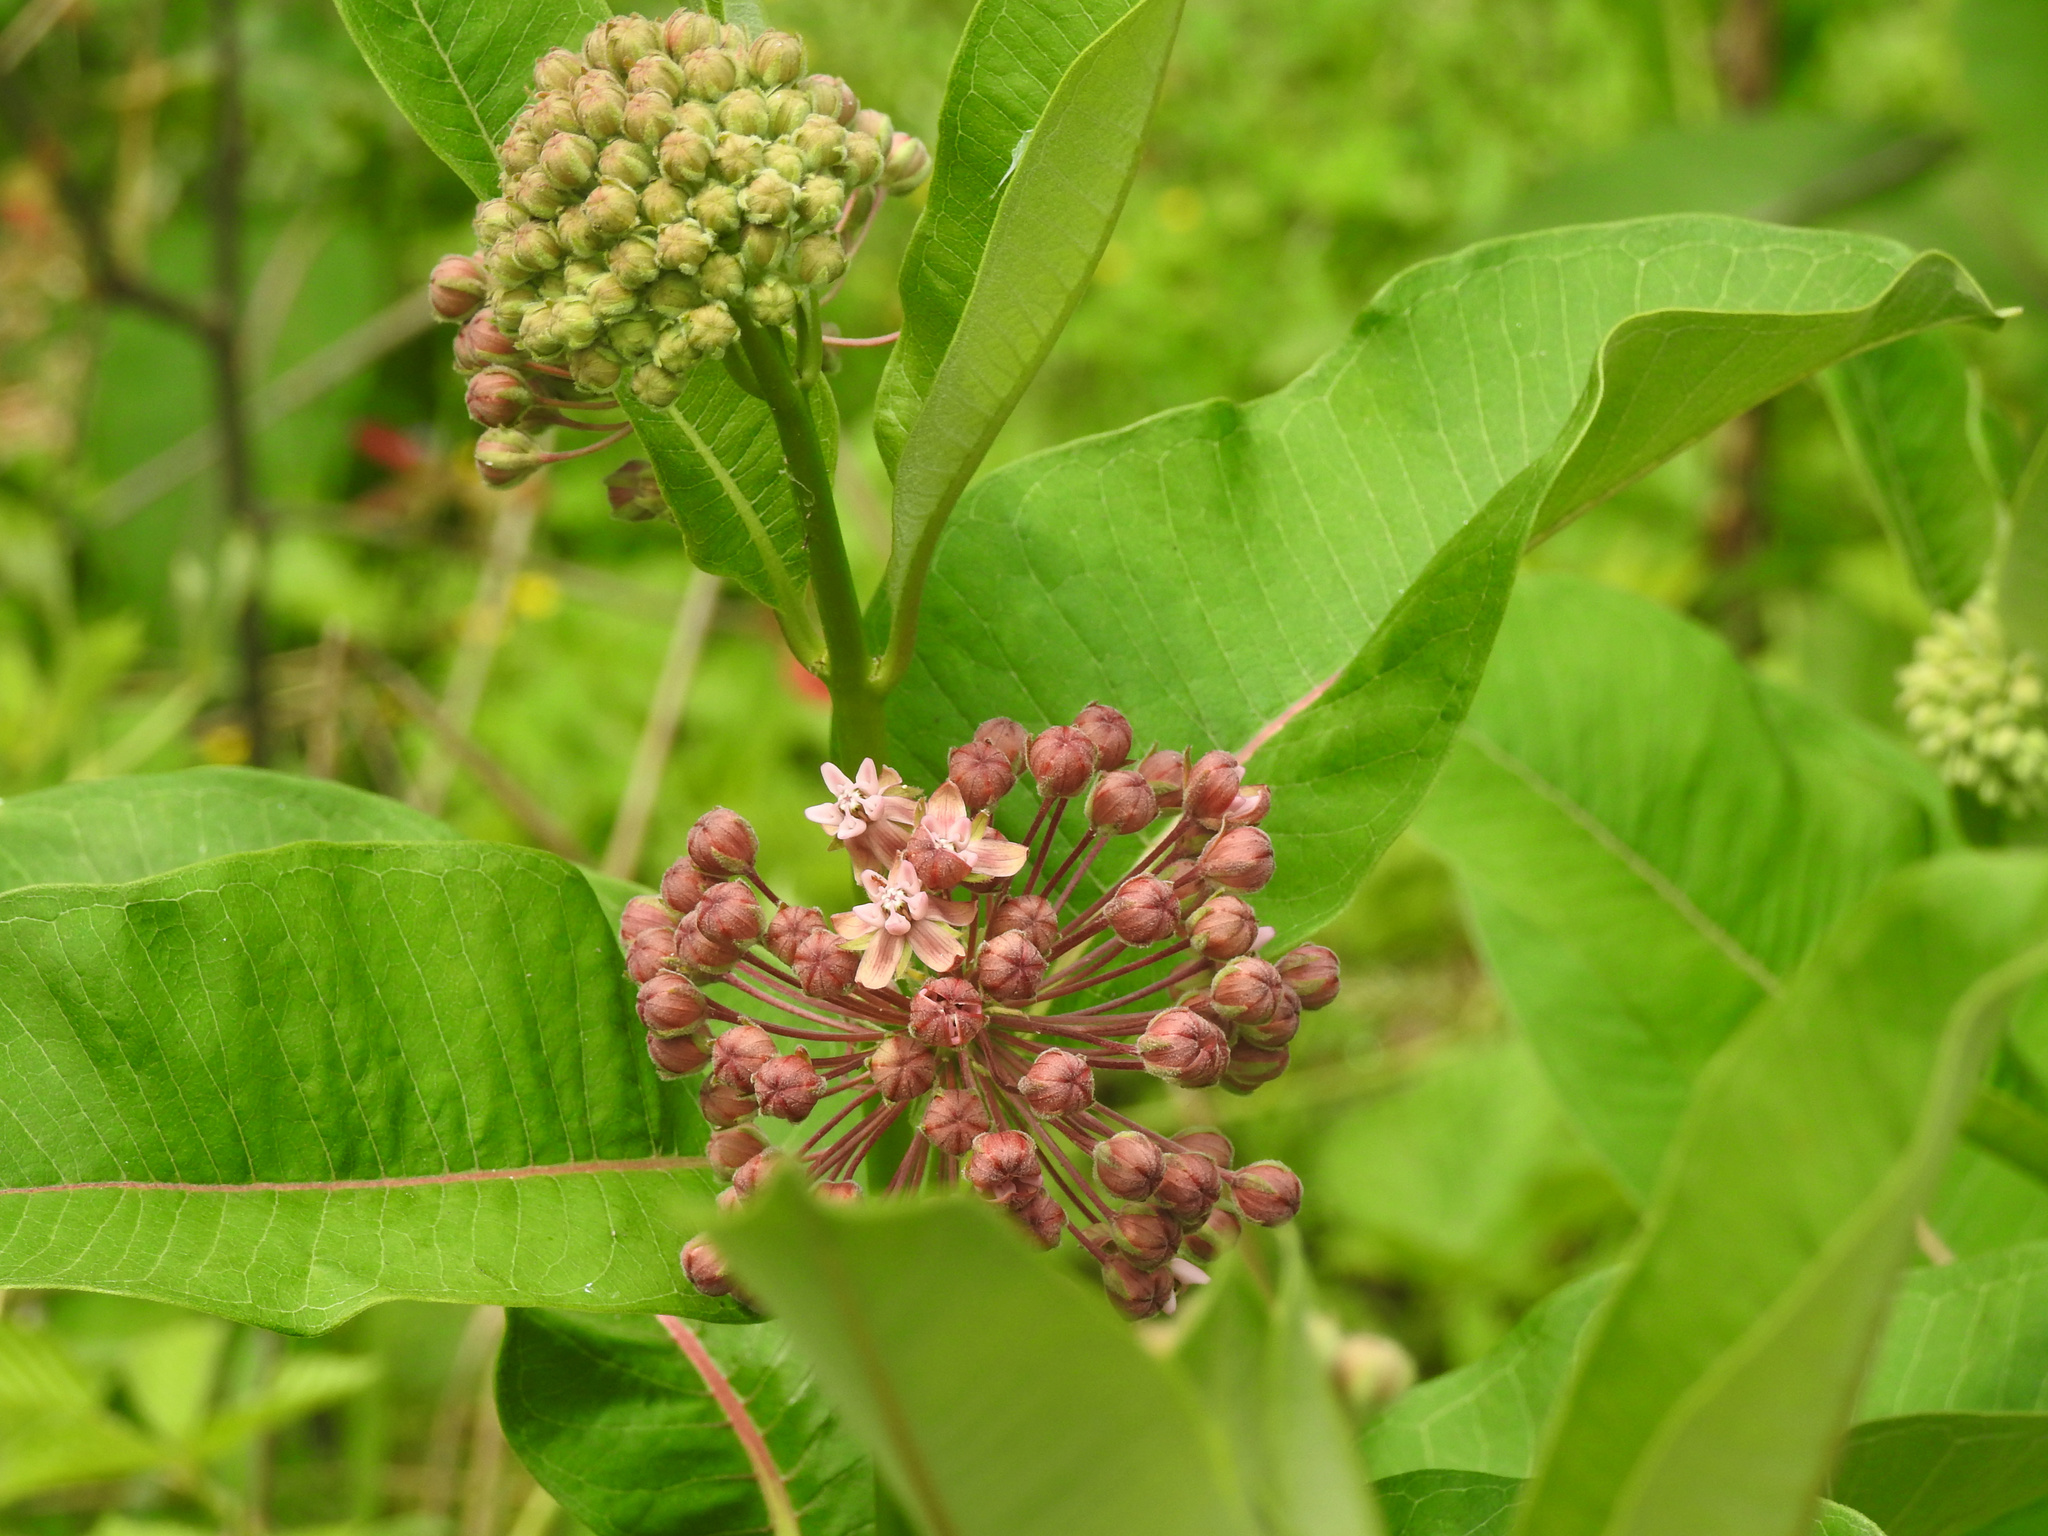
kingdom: Plantae
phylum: Tracheophyta
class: Magnoliopsida
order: Gentianales
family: Apocynaceae
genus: Asclepias
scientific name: Asclepias syriaca
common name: Common milkweed
